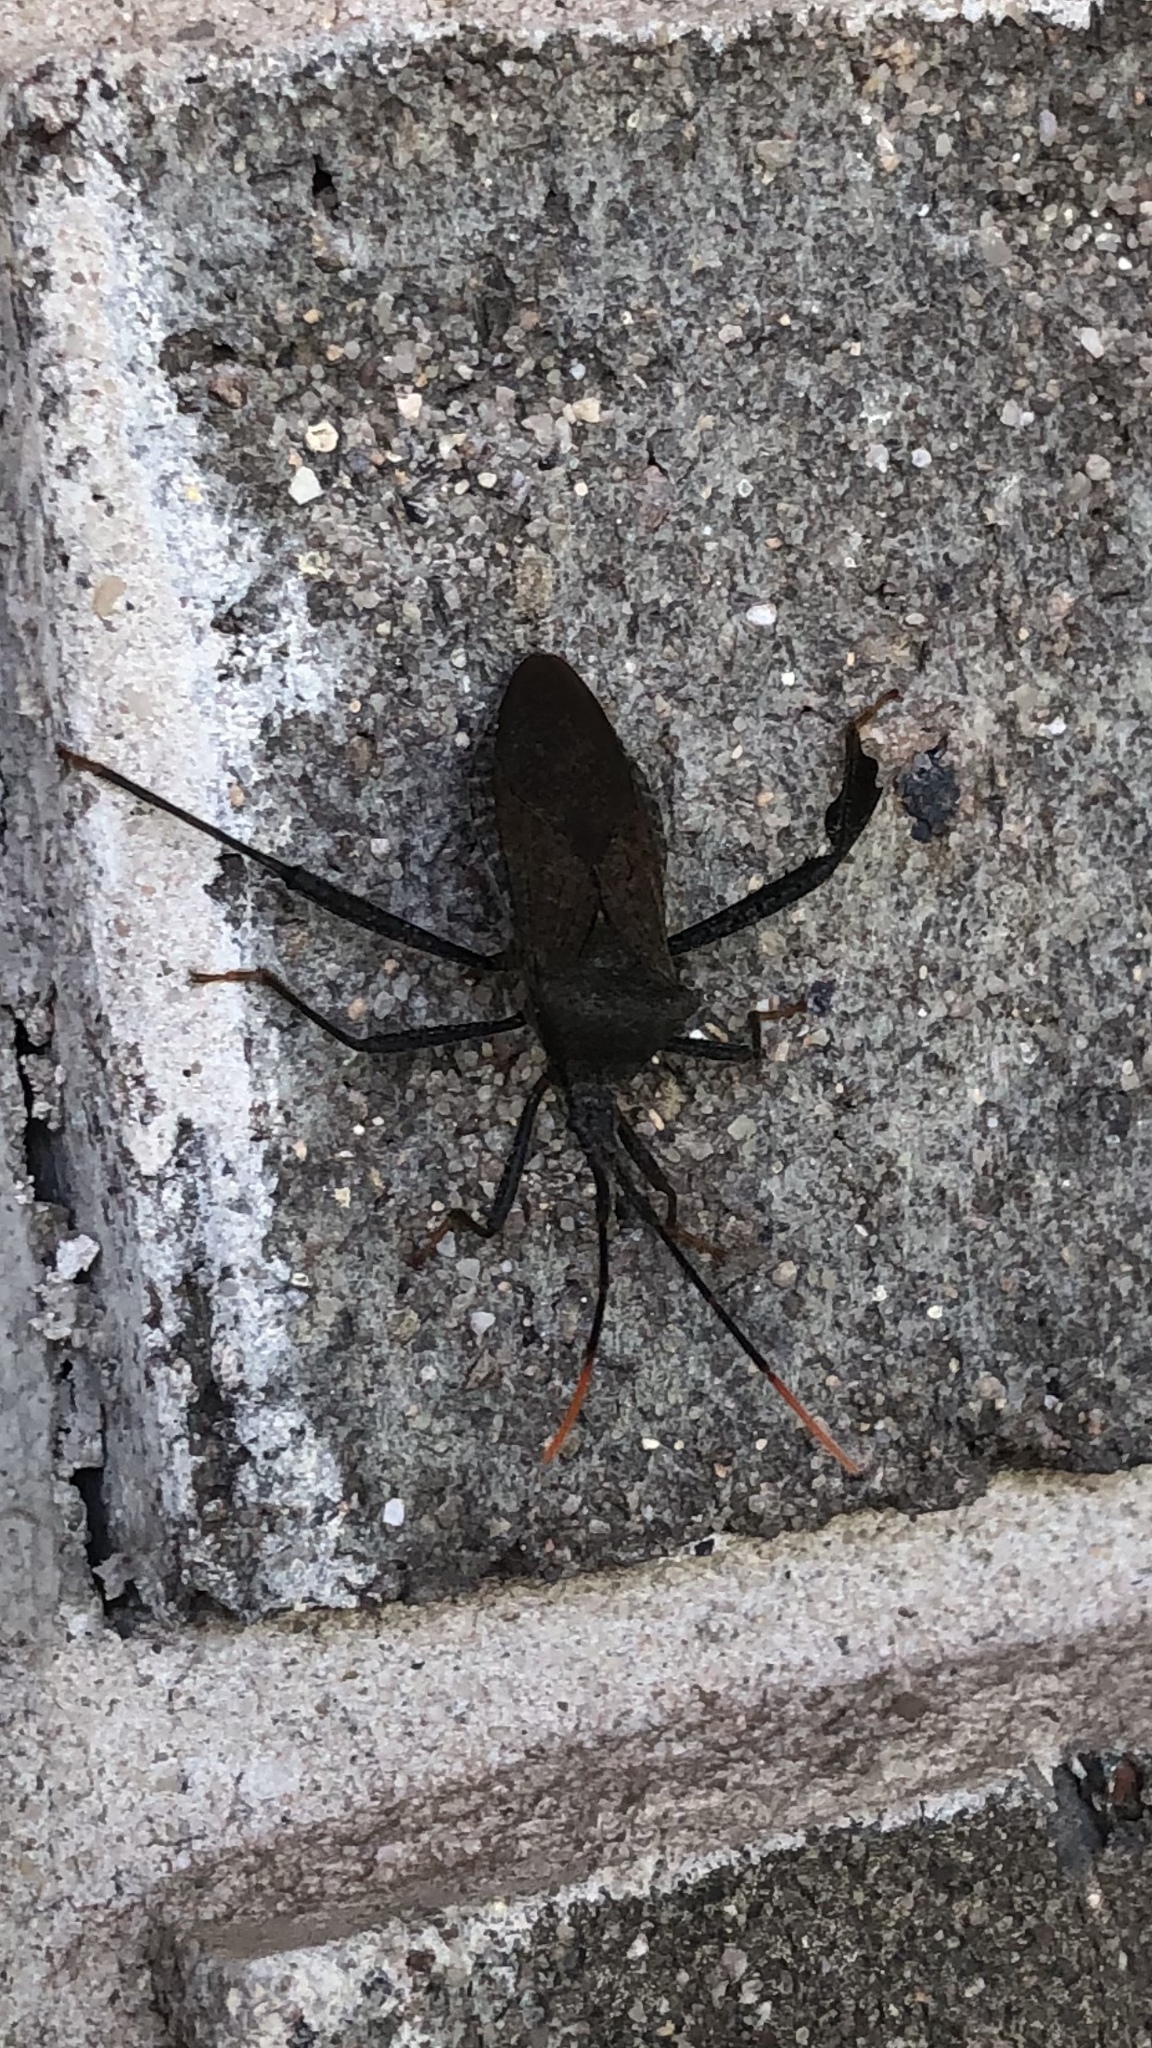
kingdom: Animalia
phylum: Arthropoda
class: Insecta
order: Hemiptera
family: Coreidae
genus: Acanthocephala
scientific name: Acanthocephala terminalis
